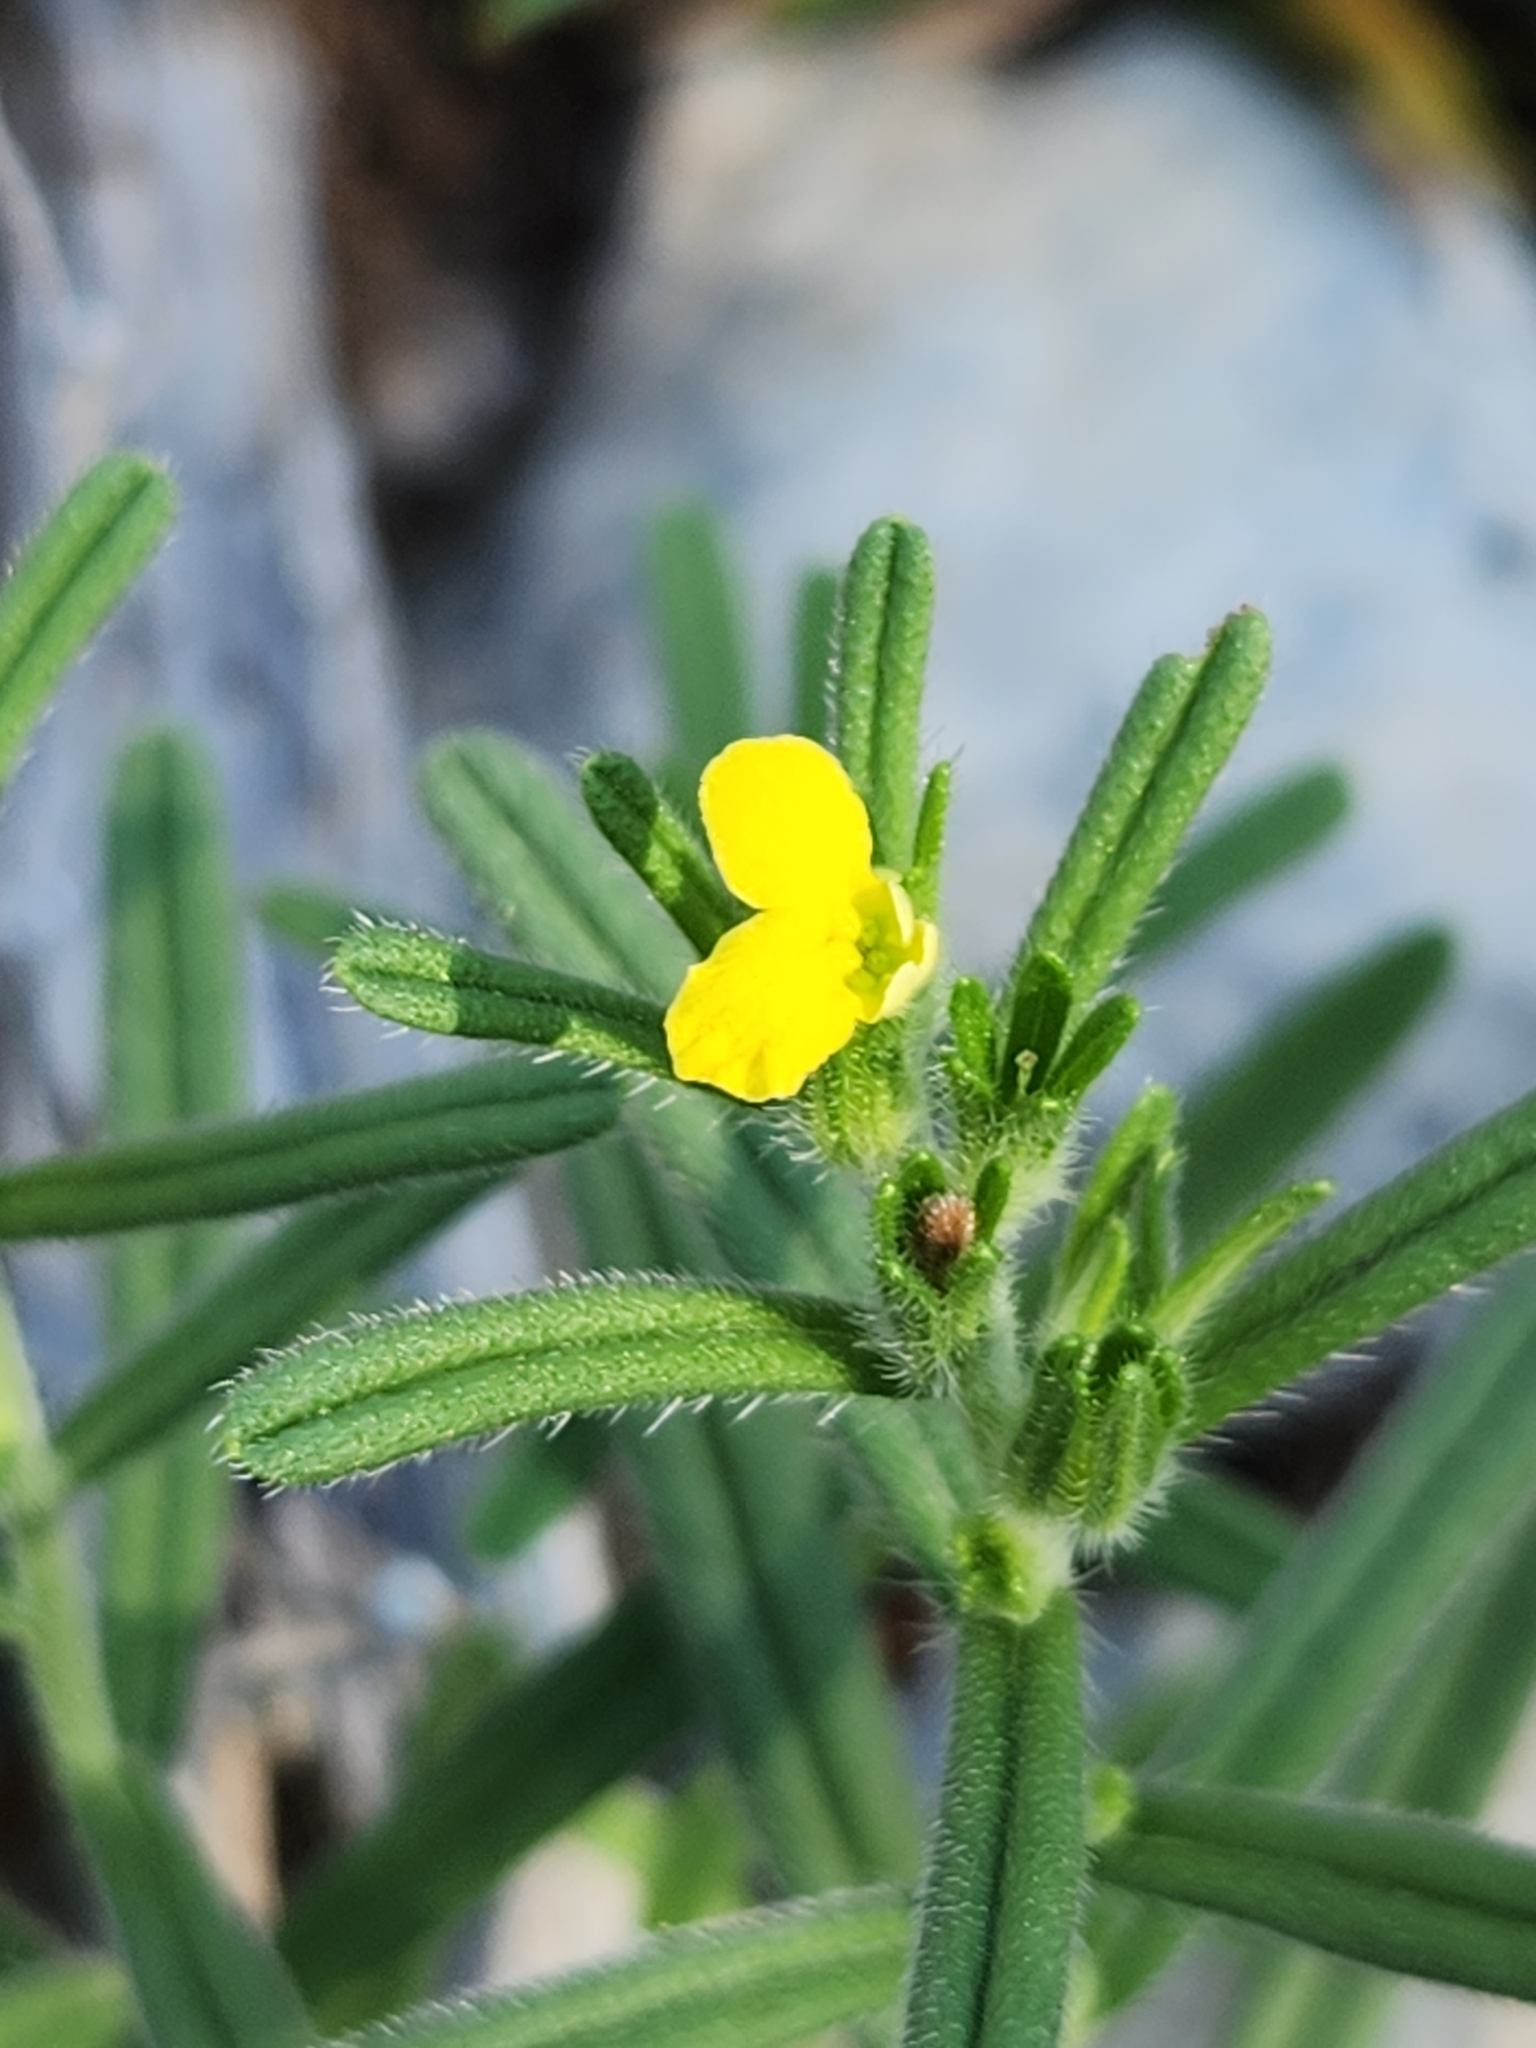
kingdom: Plantae
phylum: Tracheophyta
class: Magnoliopsida
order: Boraginales
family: Boraginaceae
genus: Lithospermum
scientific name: Lithospermum mirabile
